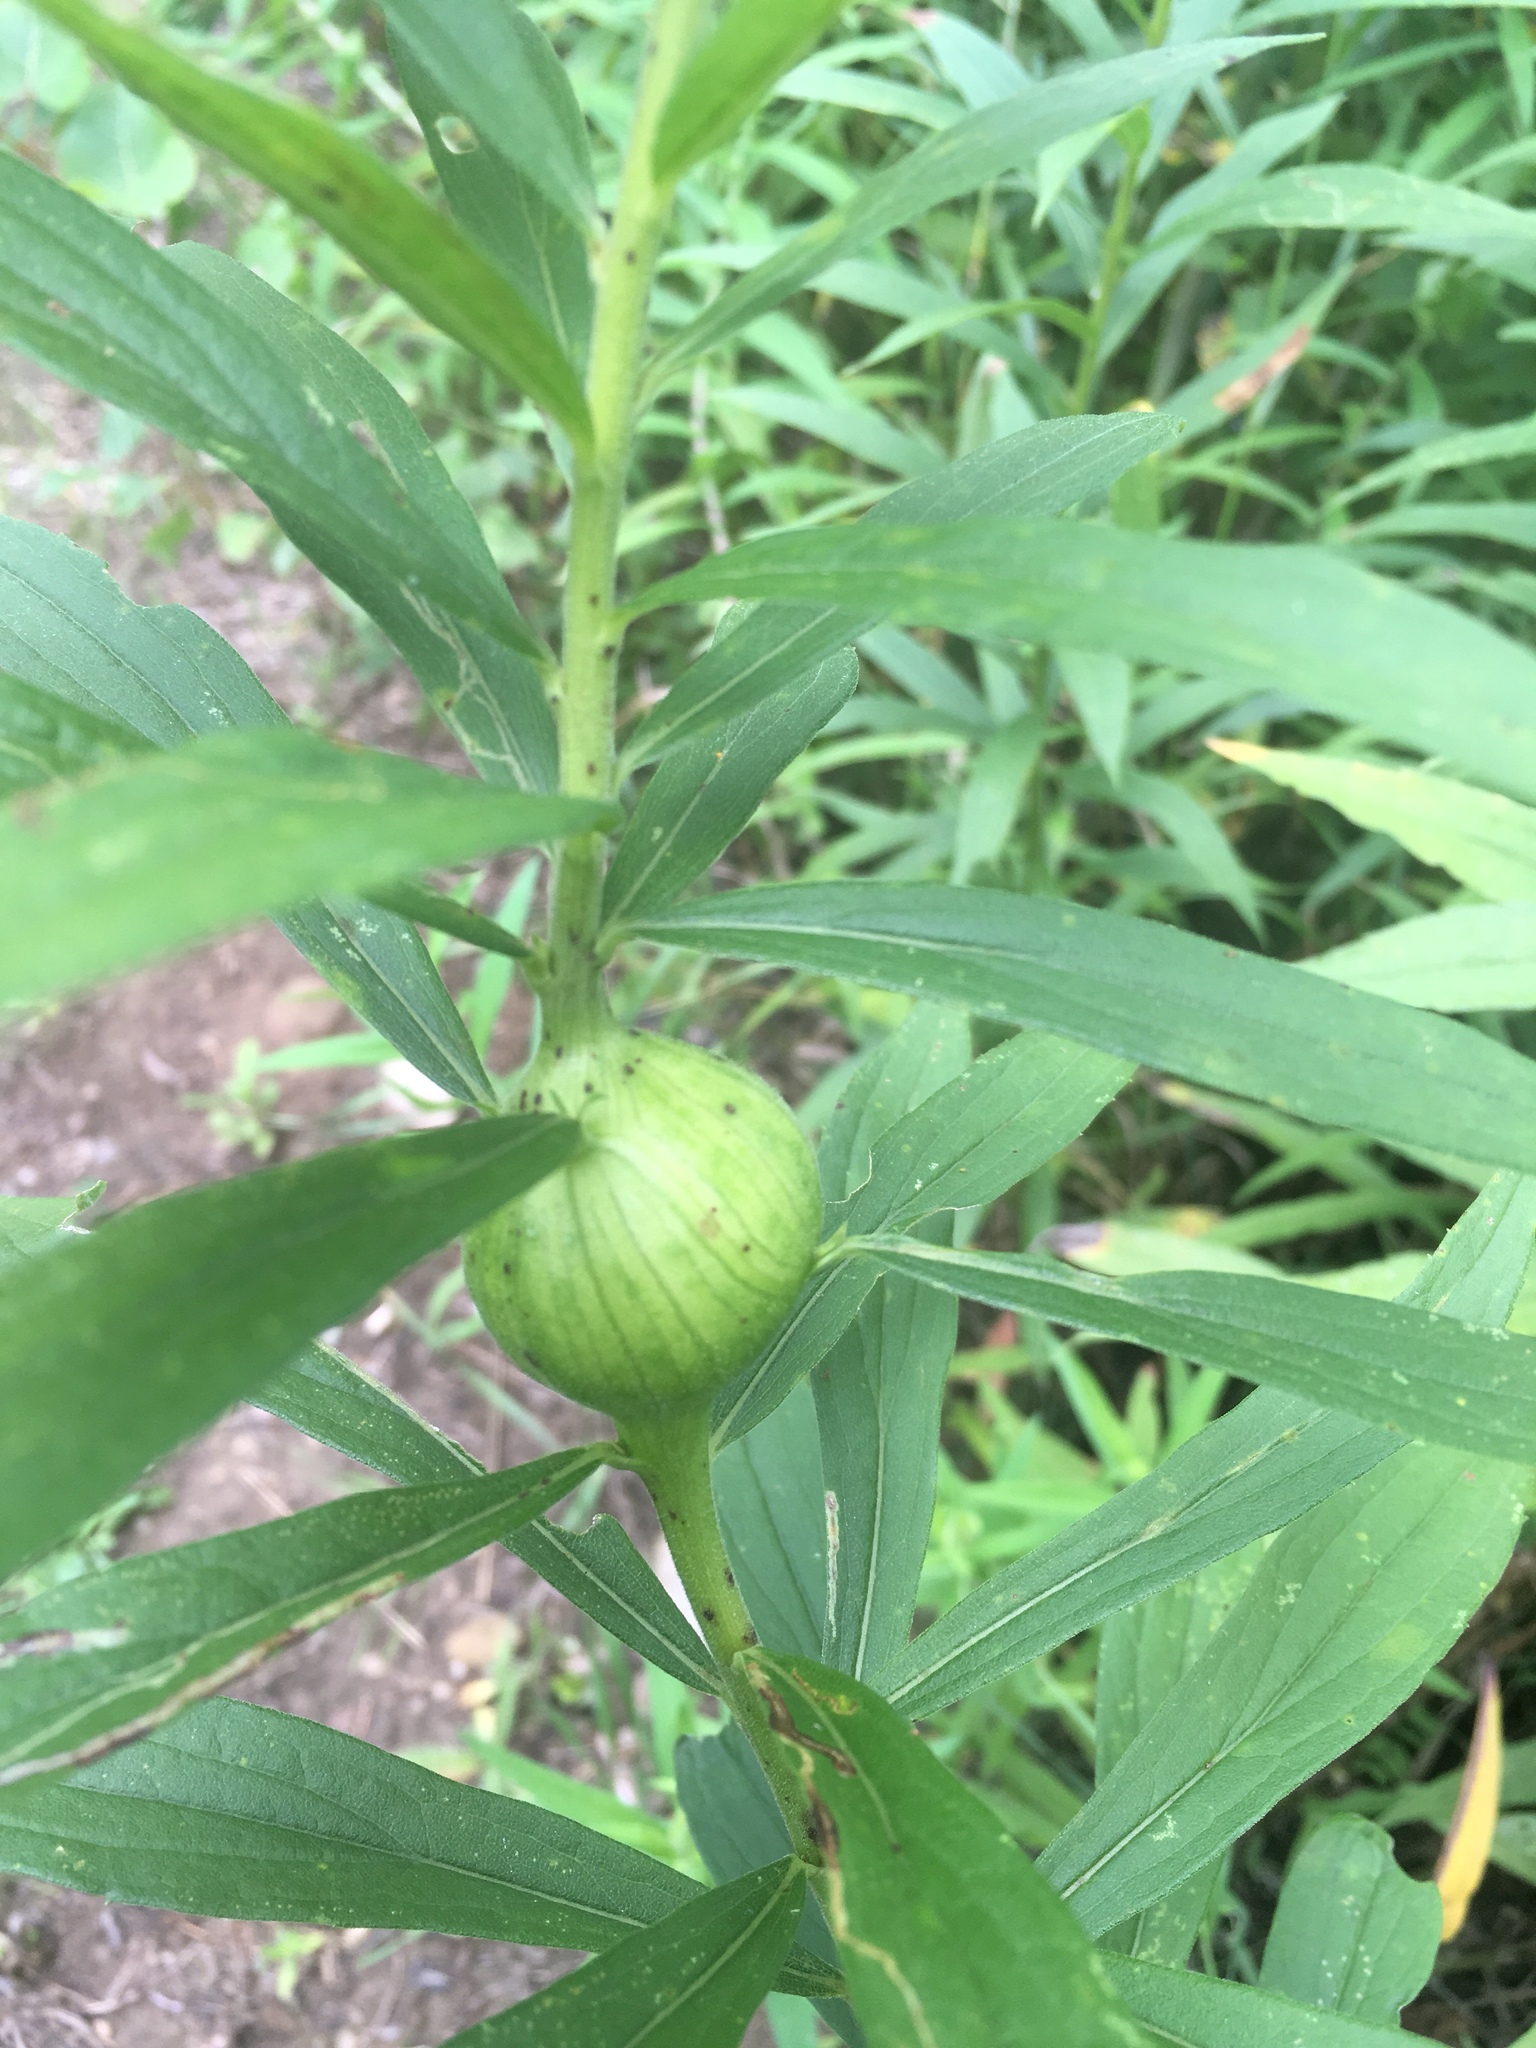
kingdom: Animalia
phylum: Arthropoda
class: Insecta
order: Diptera
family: Tephritidae
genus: Eurosta
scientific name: Eurosta solidaginis
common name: Goldenrod gall fly
